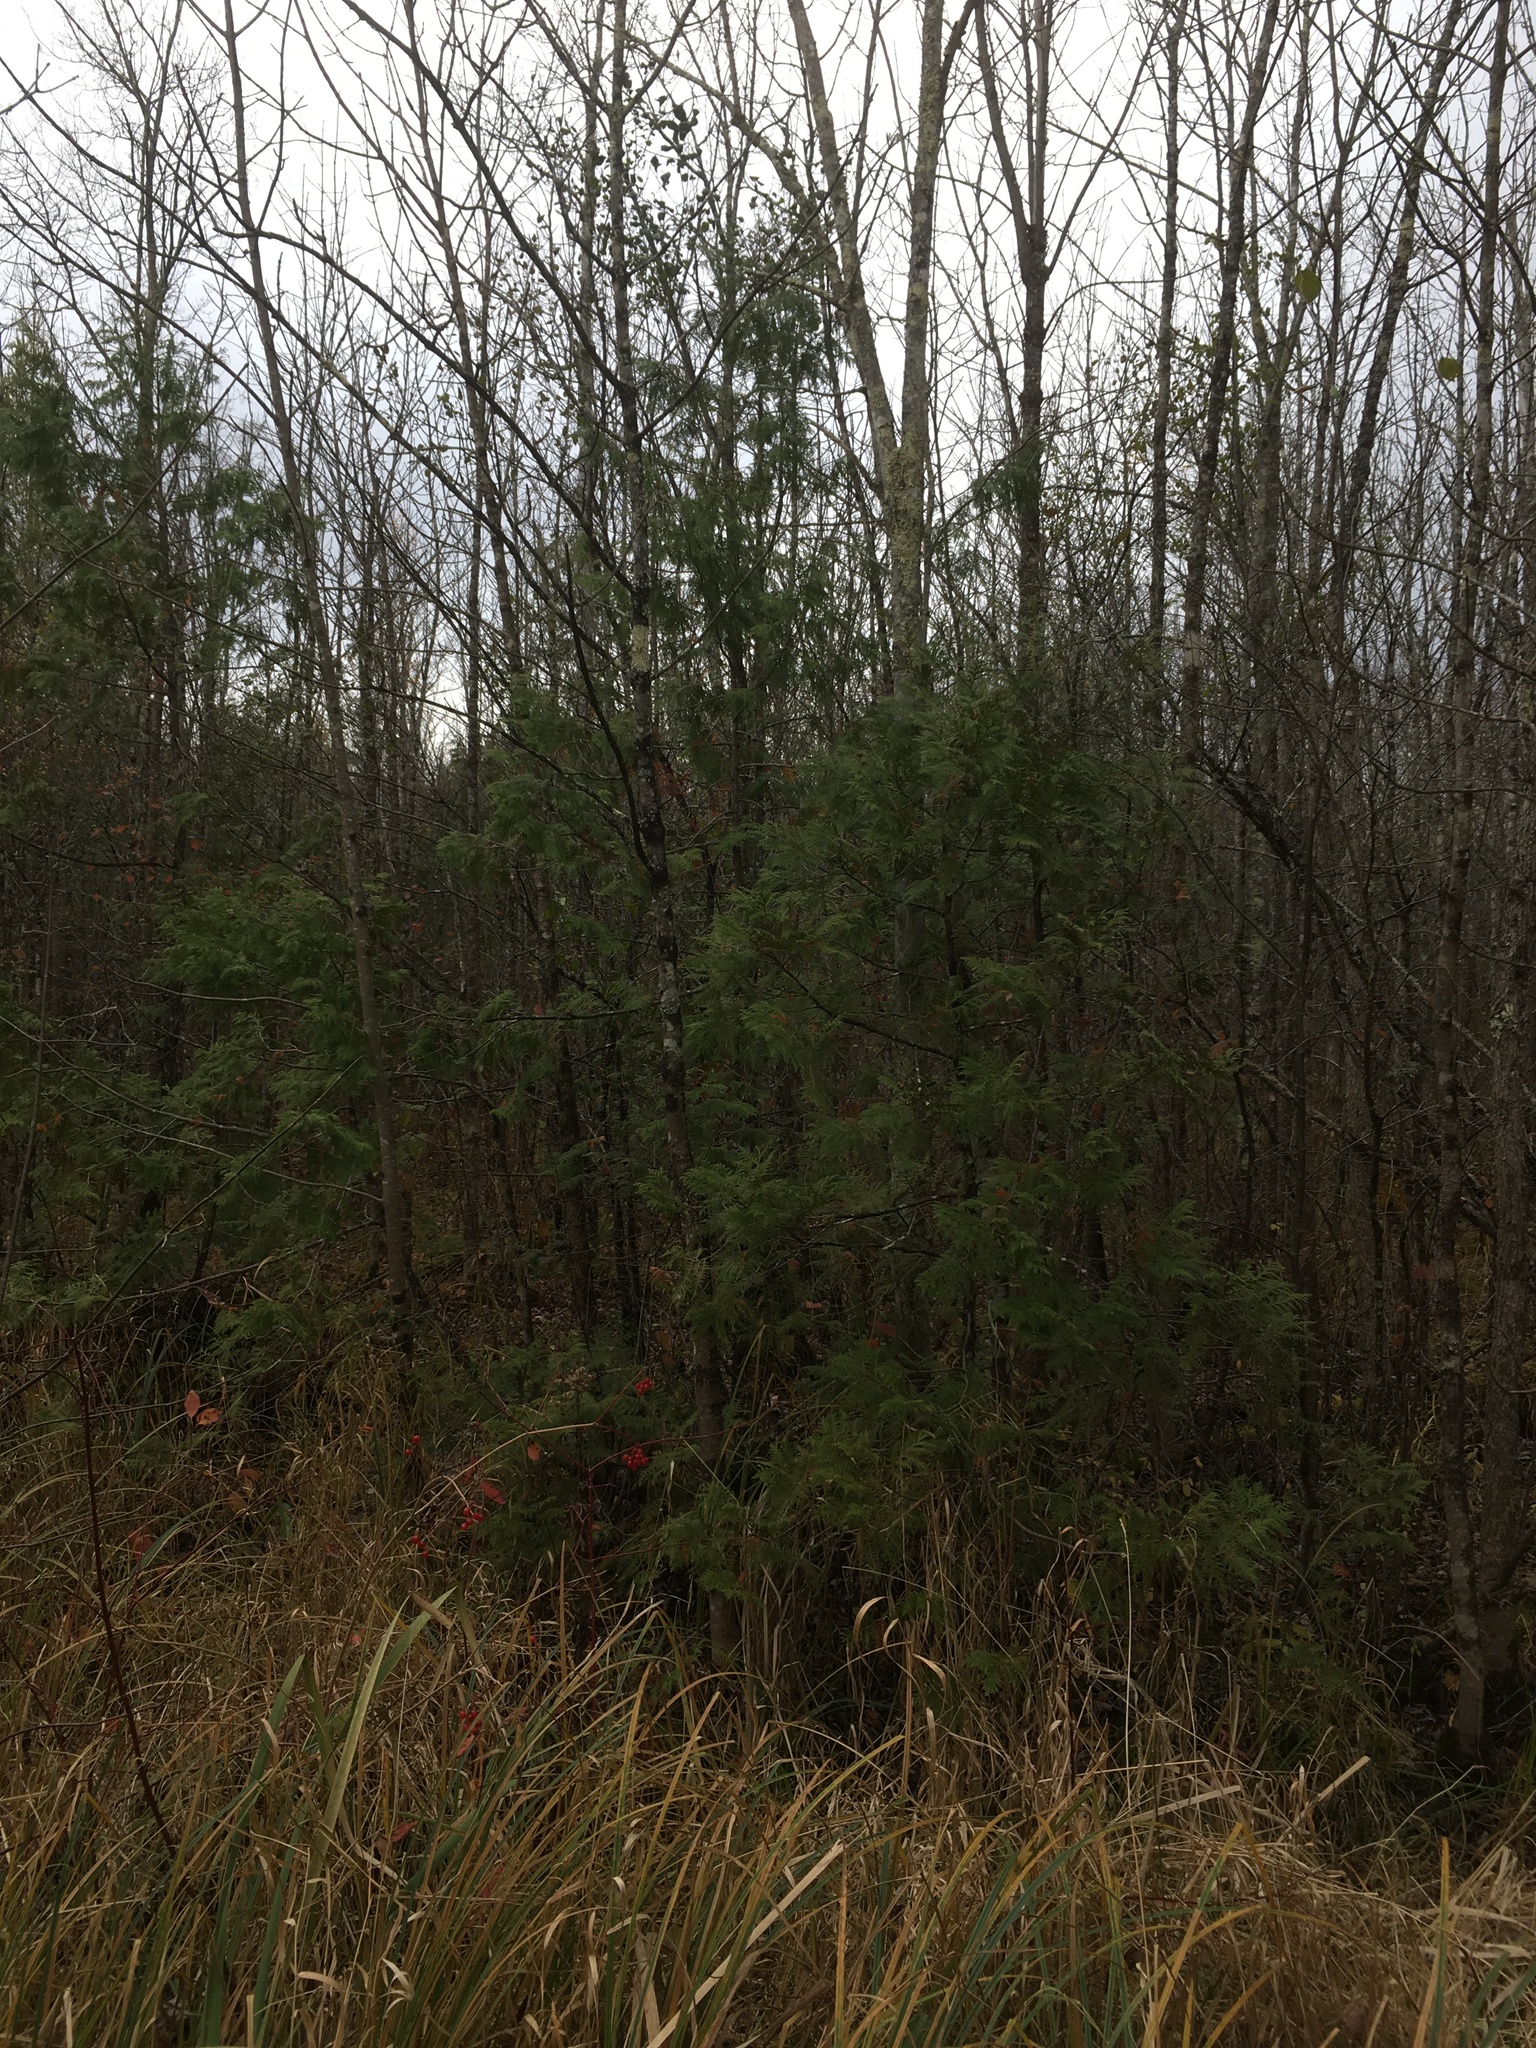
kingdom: Plantae
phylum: Tracheophyta
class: Pinopsida
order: Pinales
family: Cupressaceae
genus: Thuja
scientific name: Thuja occidentalis
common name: Northern white-cedar
